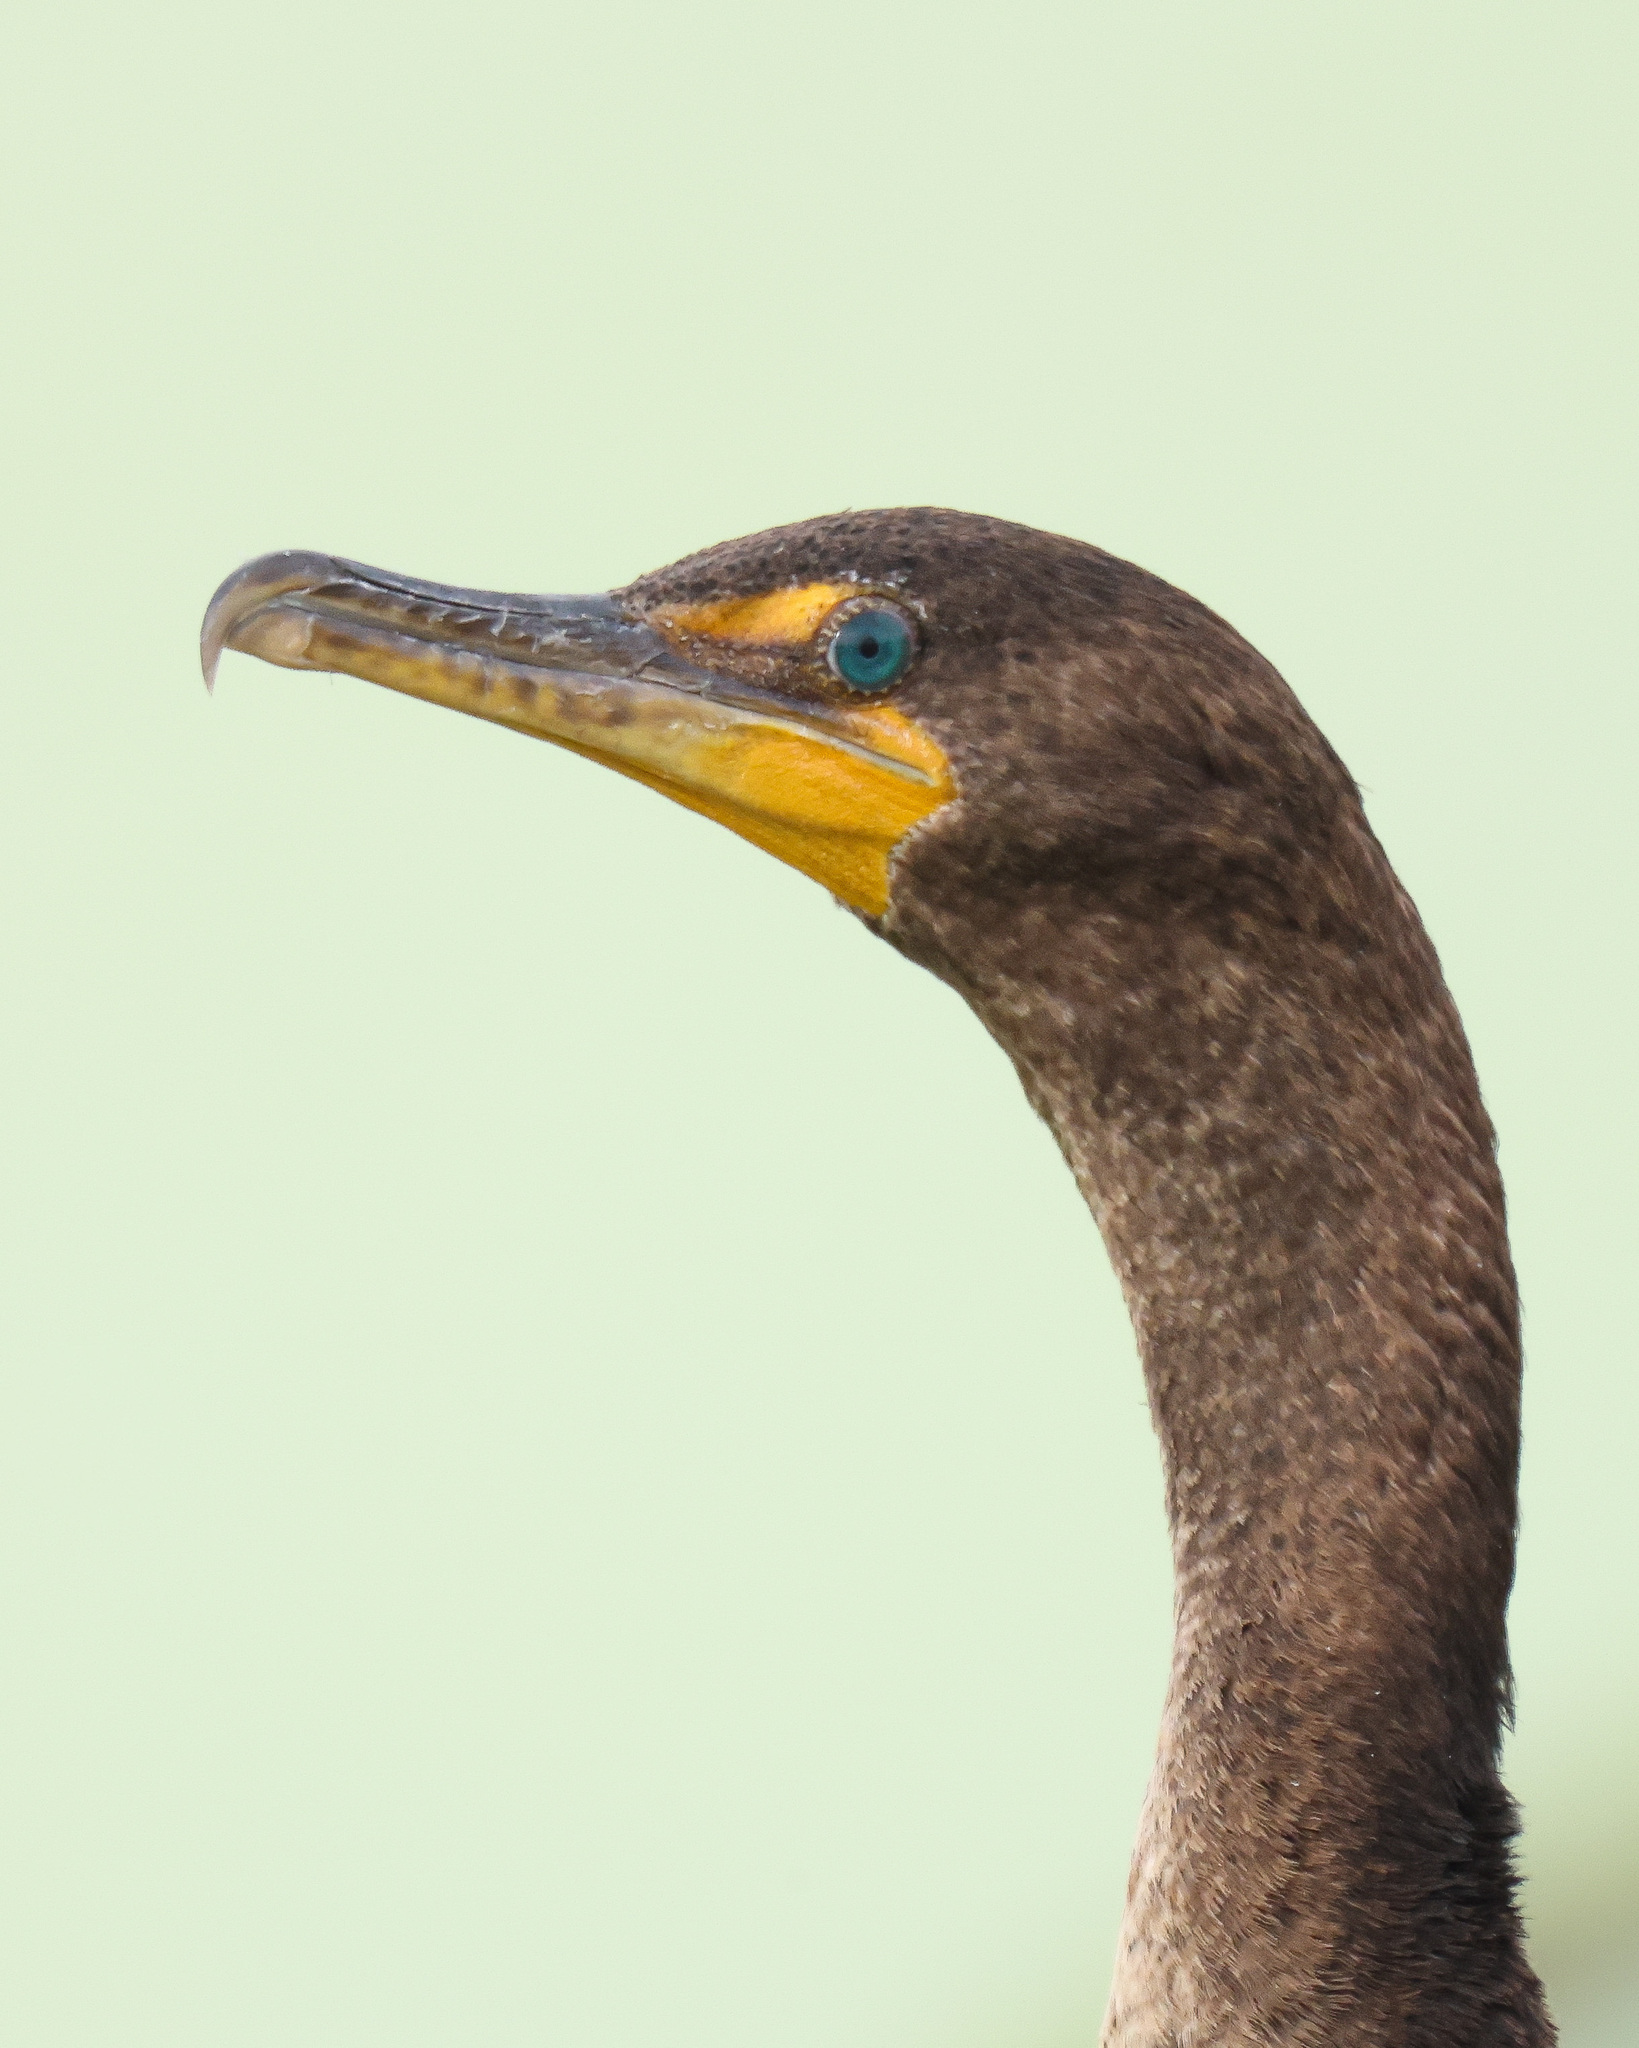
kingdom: Animalia
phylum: Chordata
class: Aves
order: Suliformes
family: Phalacrocoracidae
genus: Phalacrocorax
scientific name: Phalacrocorax auritus
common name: Double-crested cormorant
